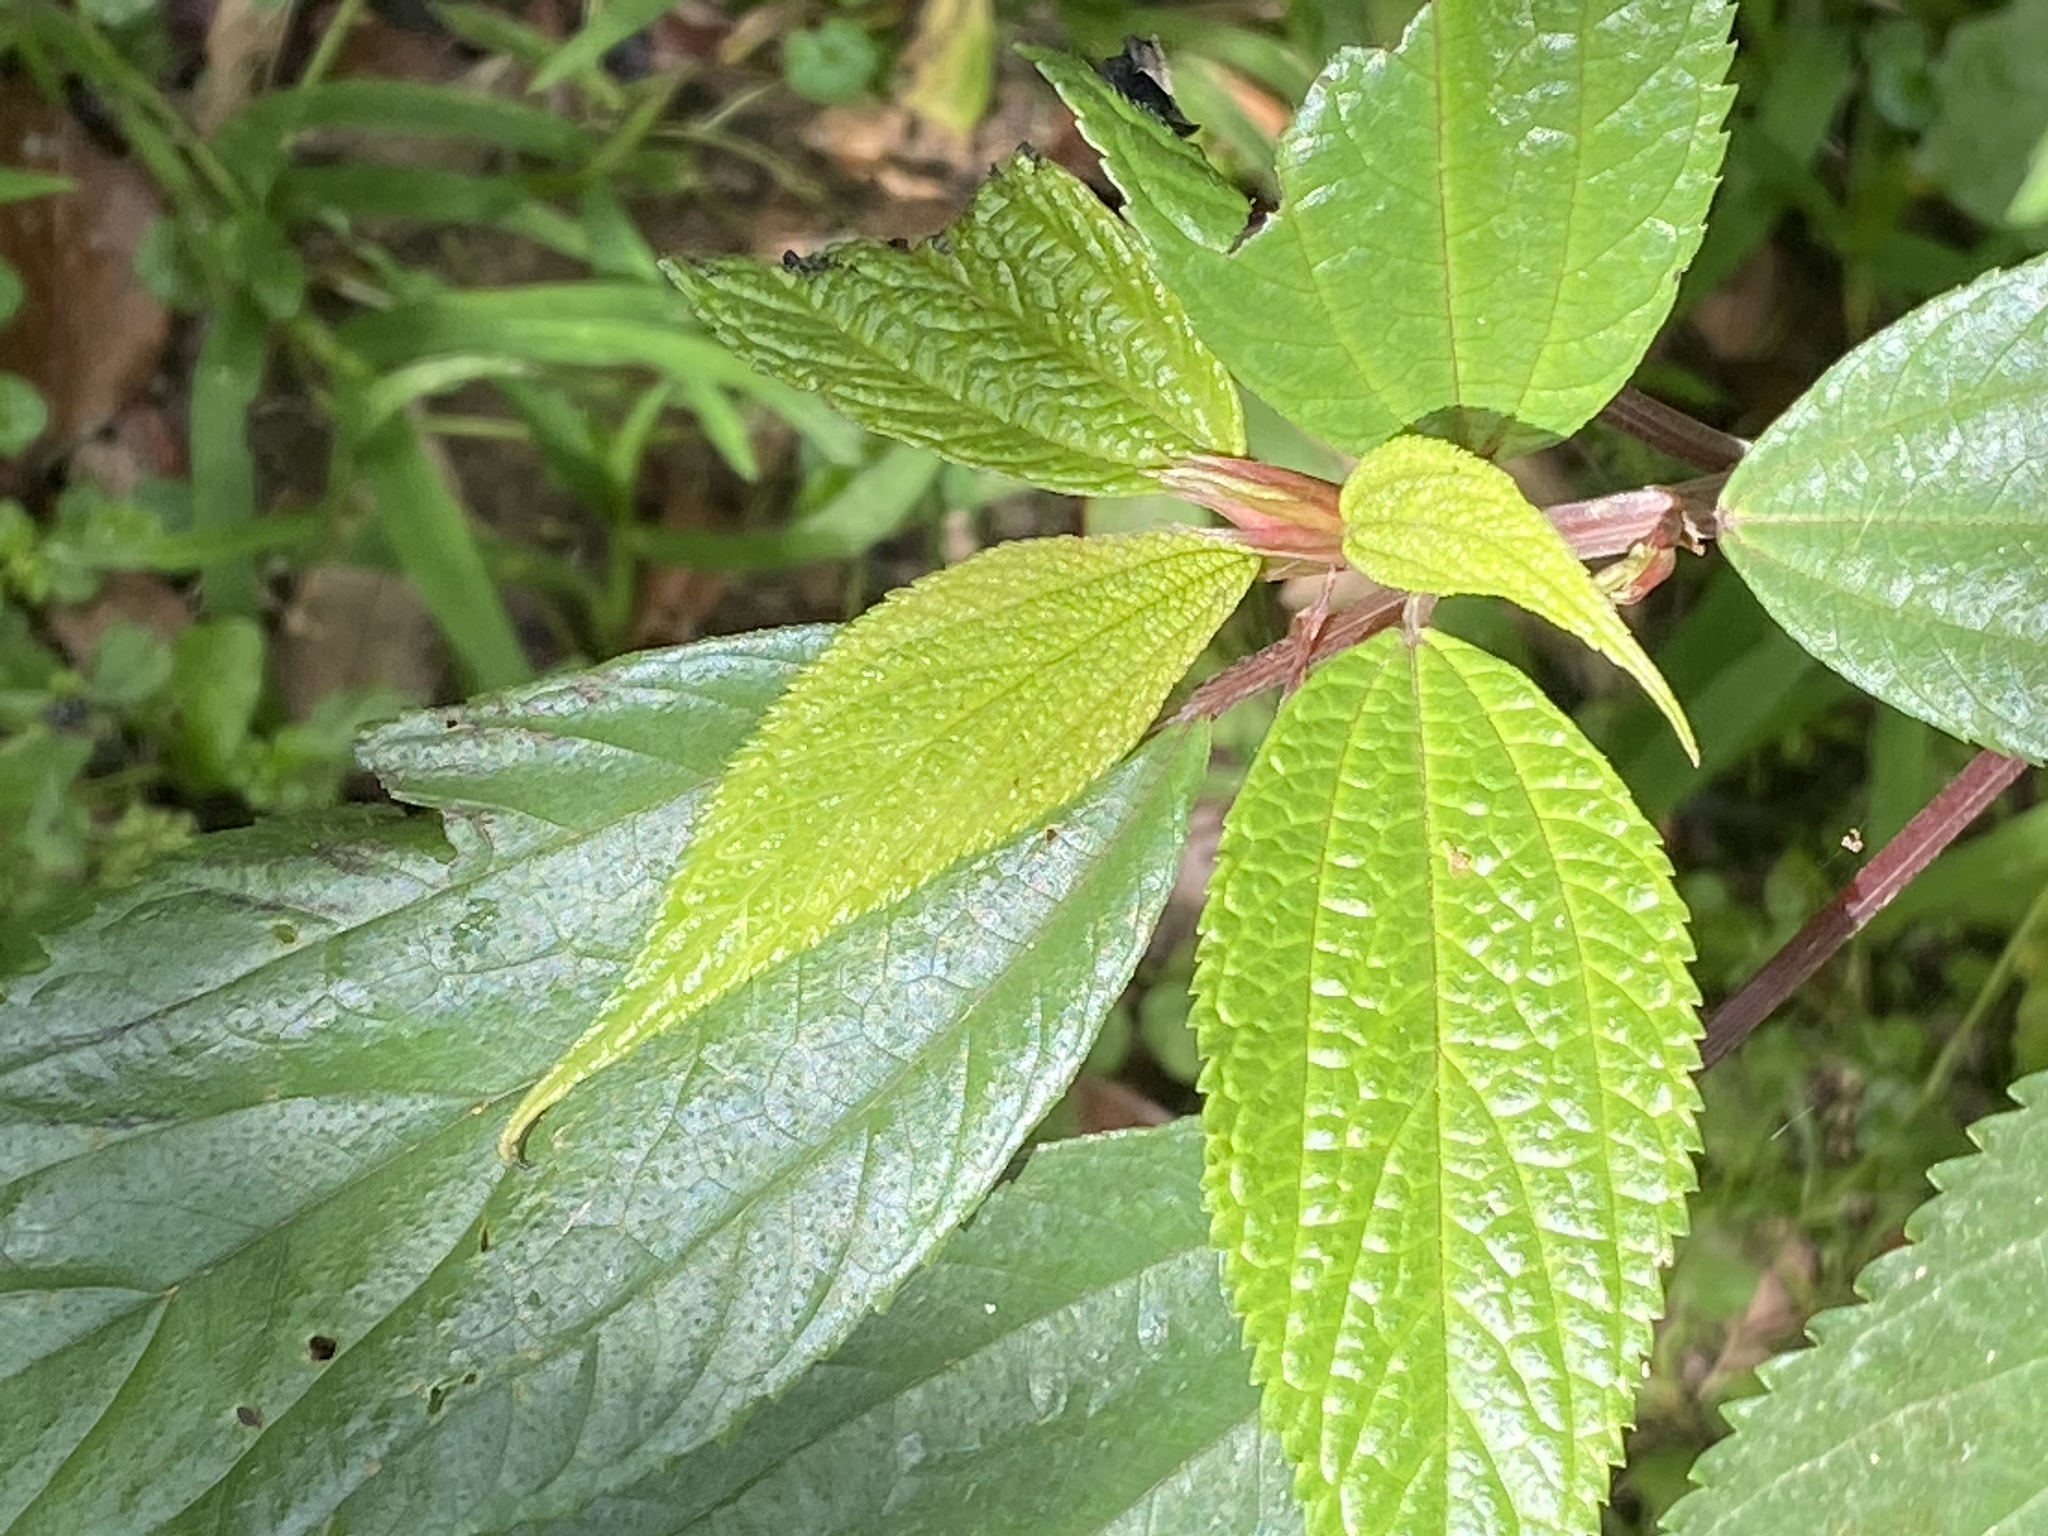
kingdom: Plantae
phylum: Tracheophyta
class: Magnoliopsida
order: Rosales
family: Urticaceae
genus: Oreocnide
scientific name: Oreocnide pedunculata
